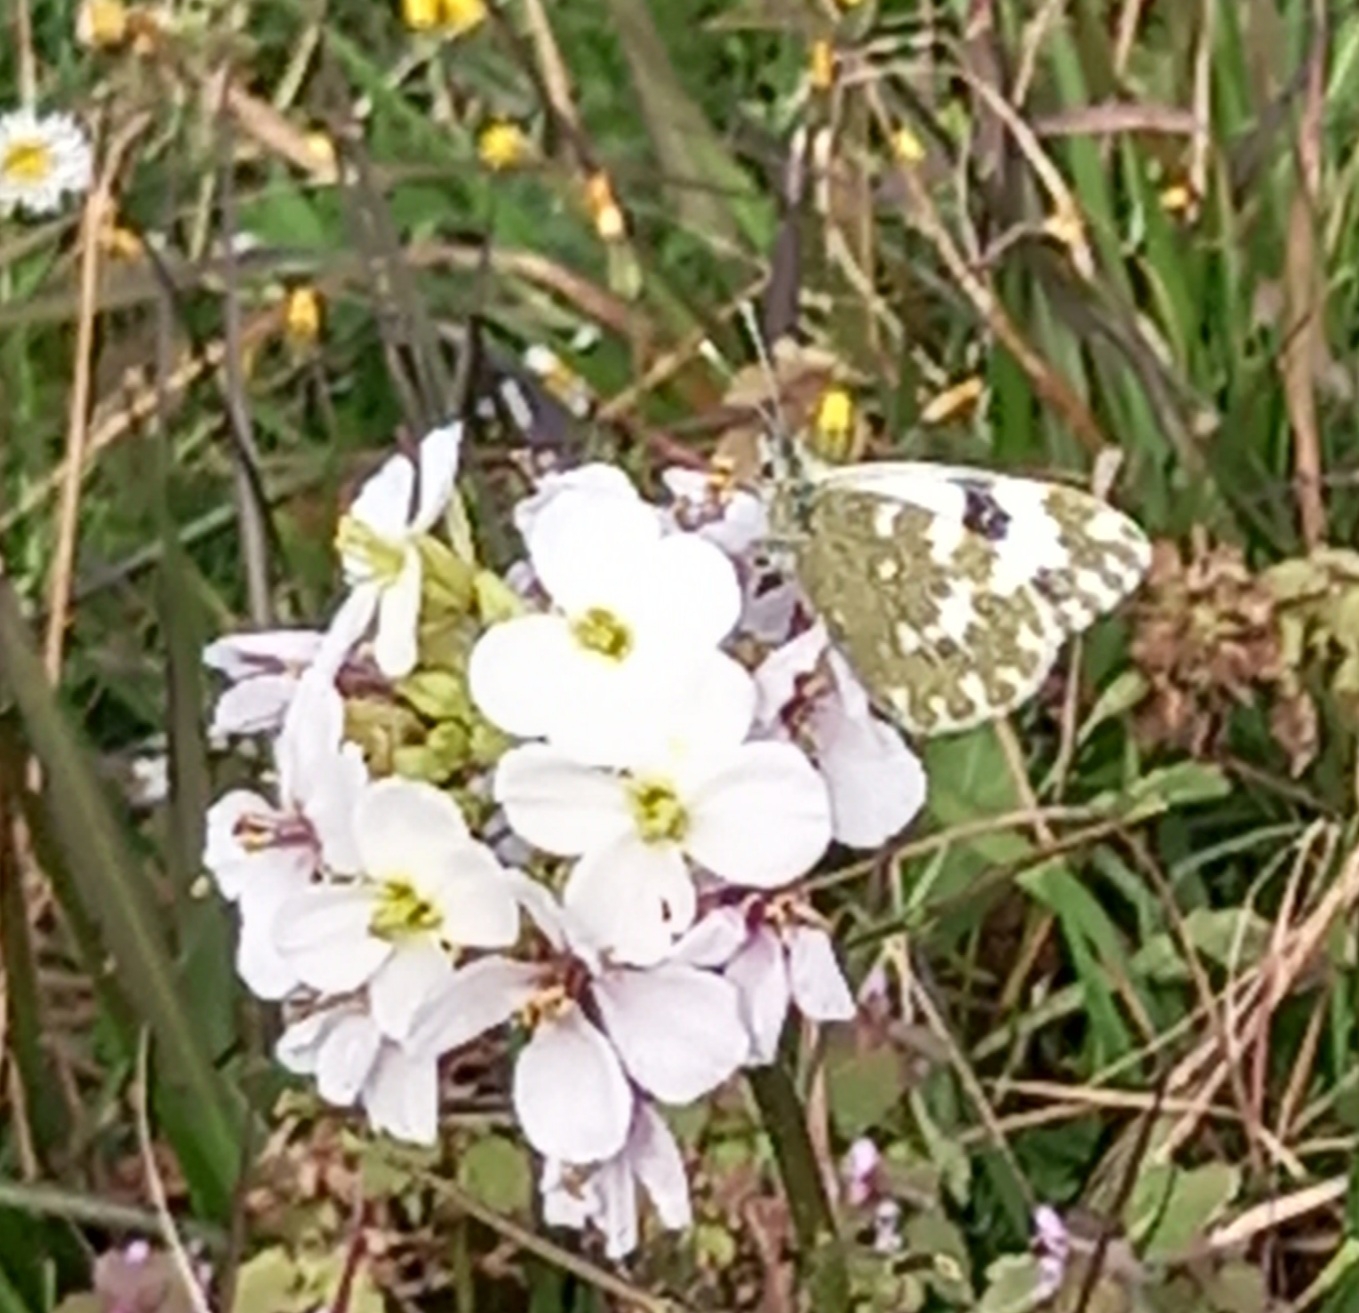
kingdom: Animalia
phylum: Arthropoda
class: Insecta
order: Lepidoptera
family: Pieridae
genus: Pontia
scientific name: Pontia daplidice
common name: Bath white
